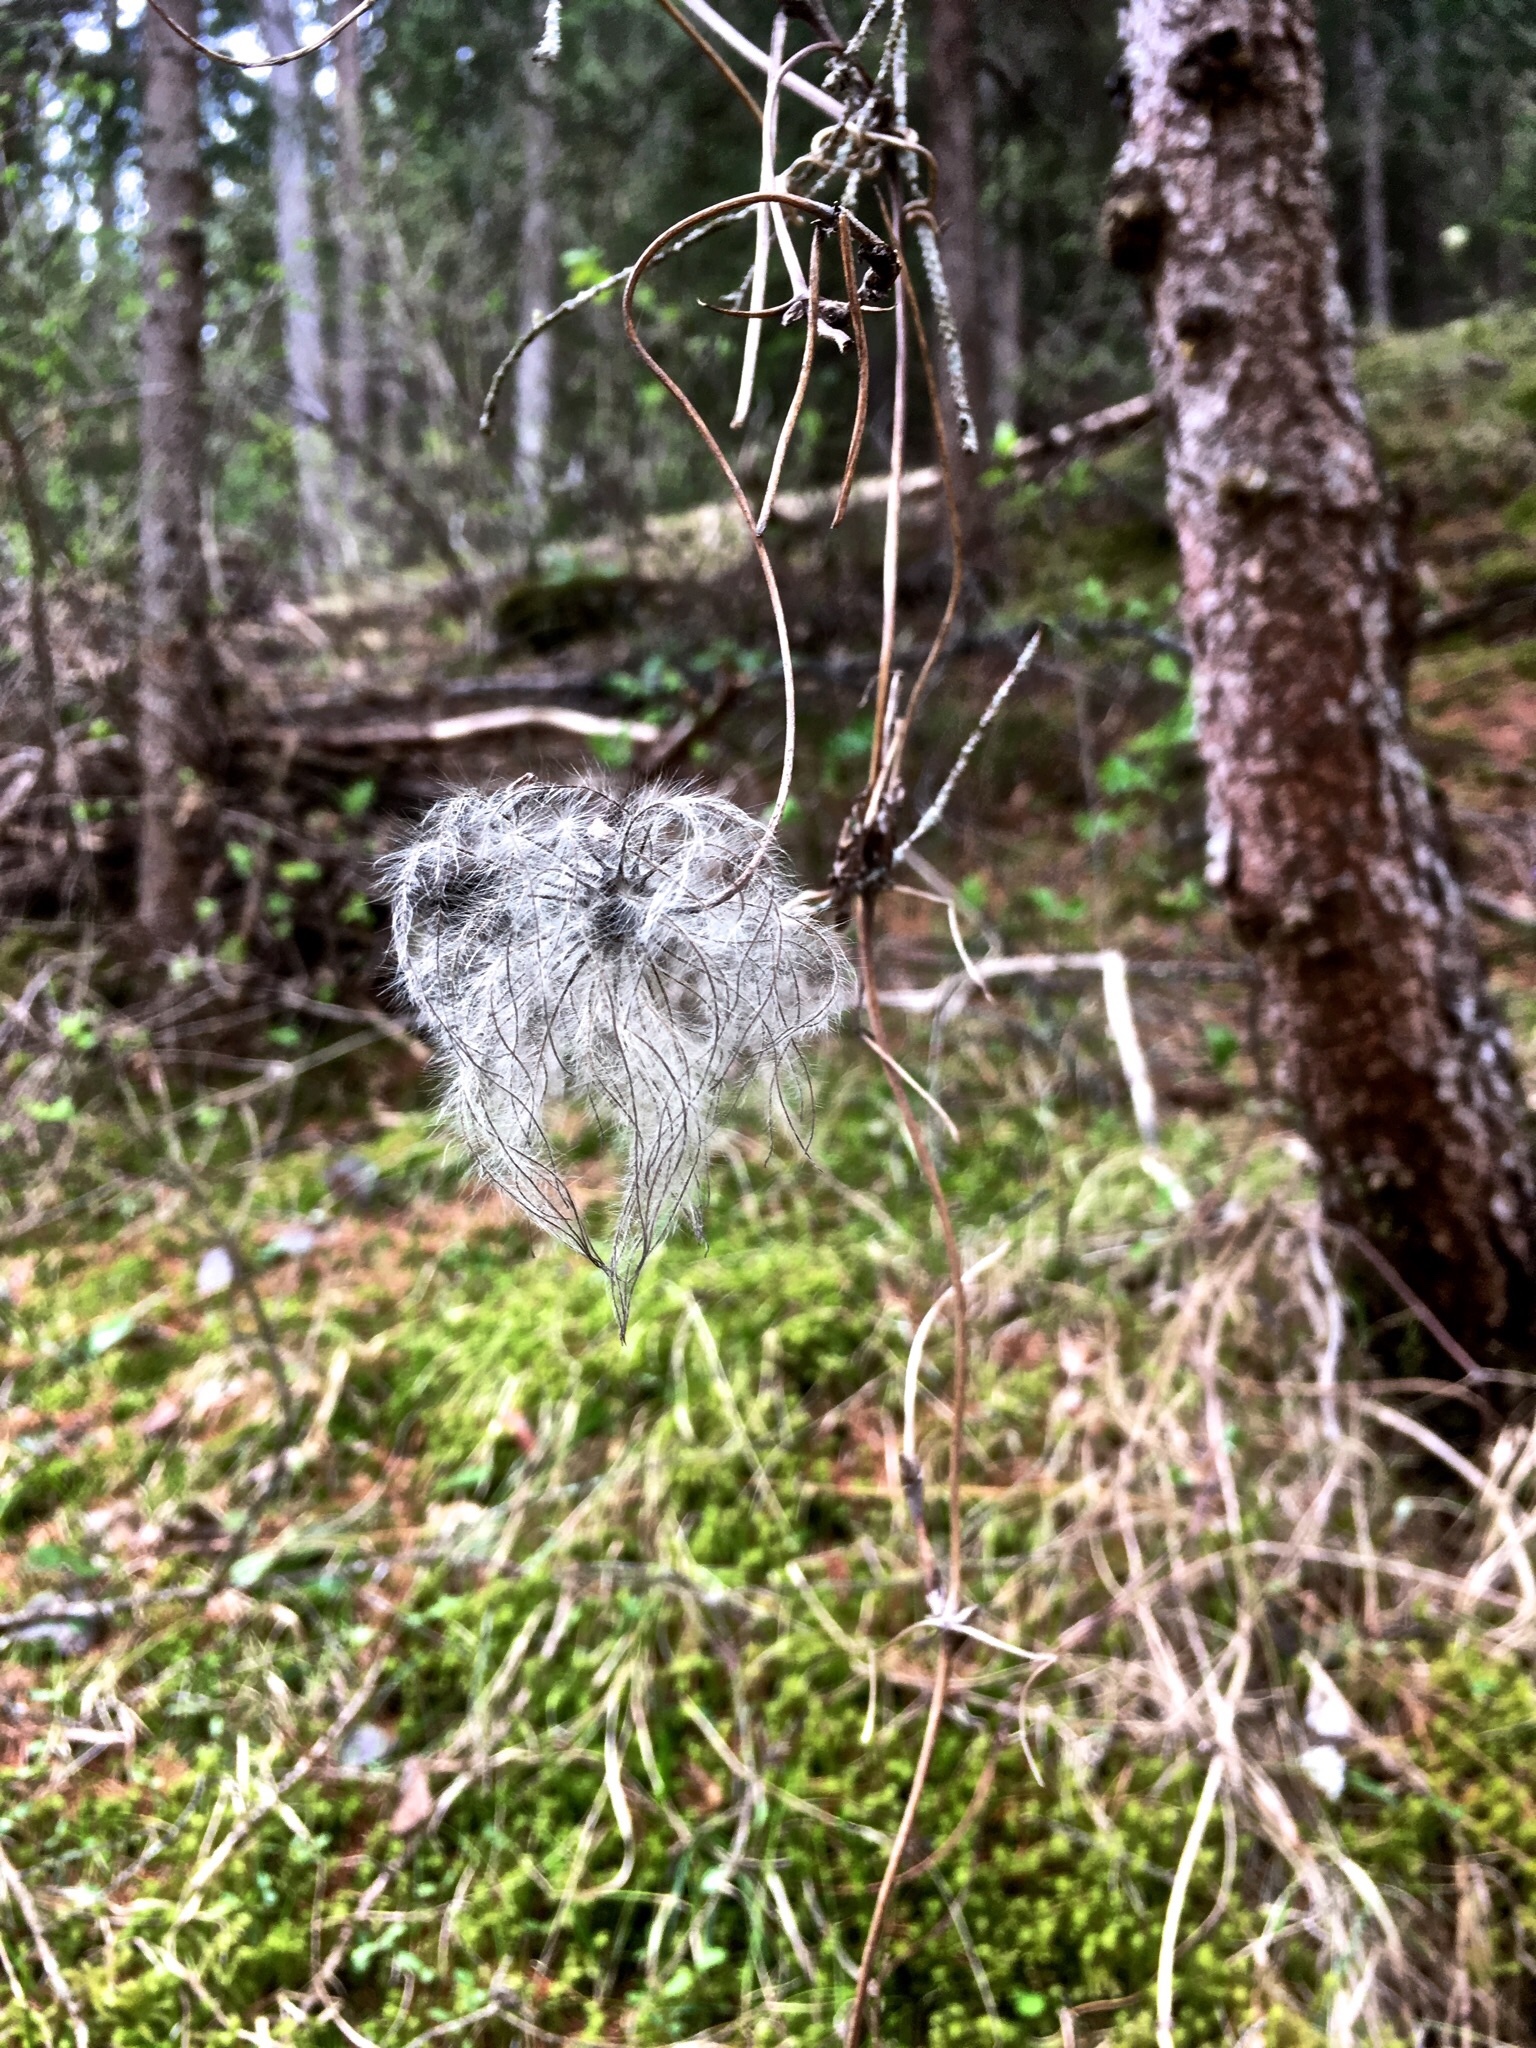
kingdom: Plantae
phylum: Tracheophyta
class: Magnoliopsida
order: Ranunculales
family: Ranunculaceae
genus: Clematis
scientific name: Clematis alpina
